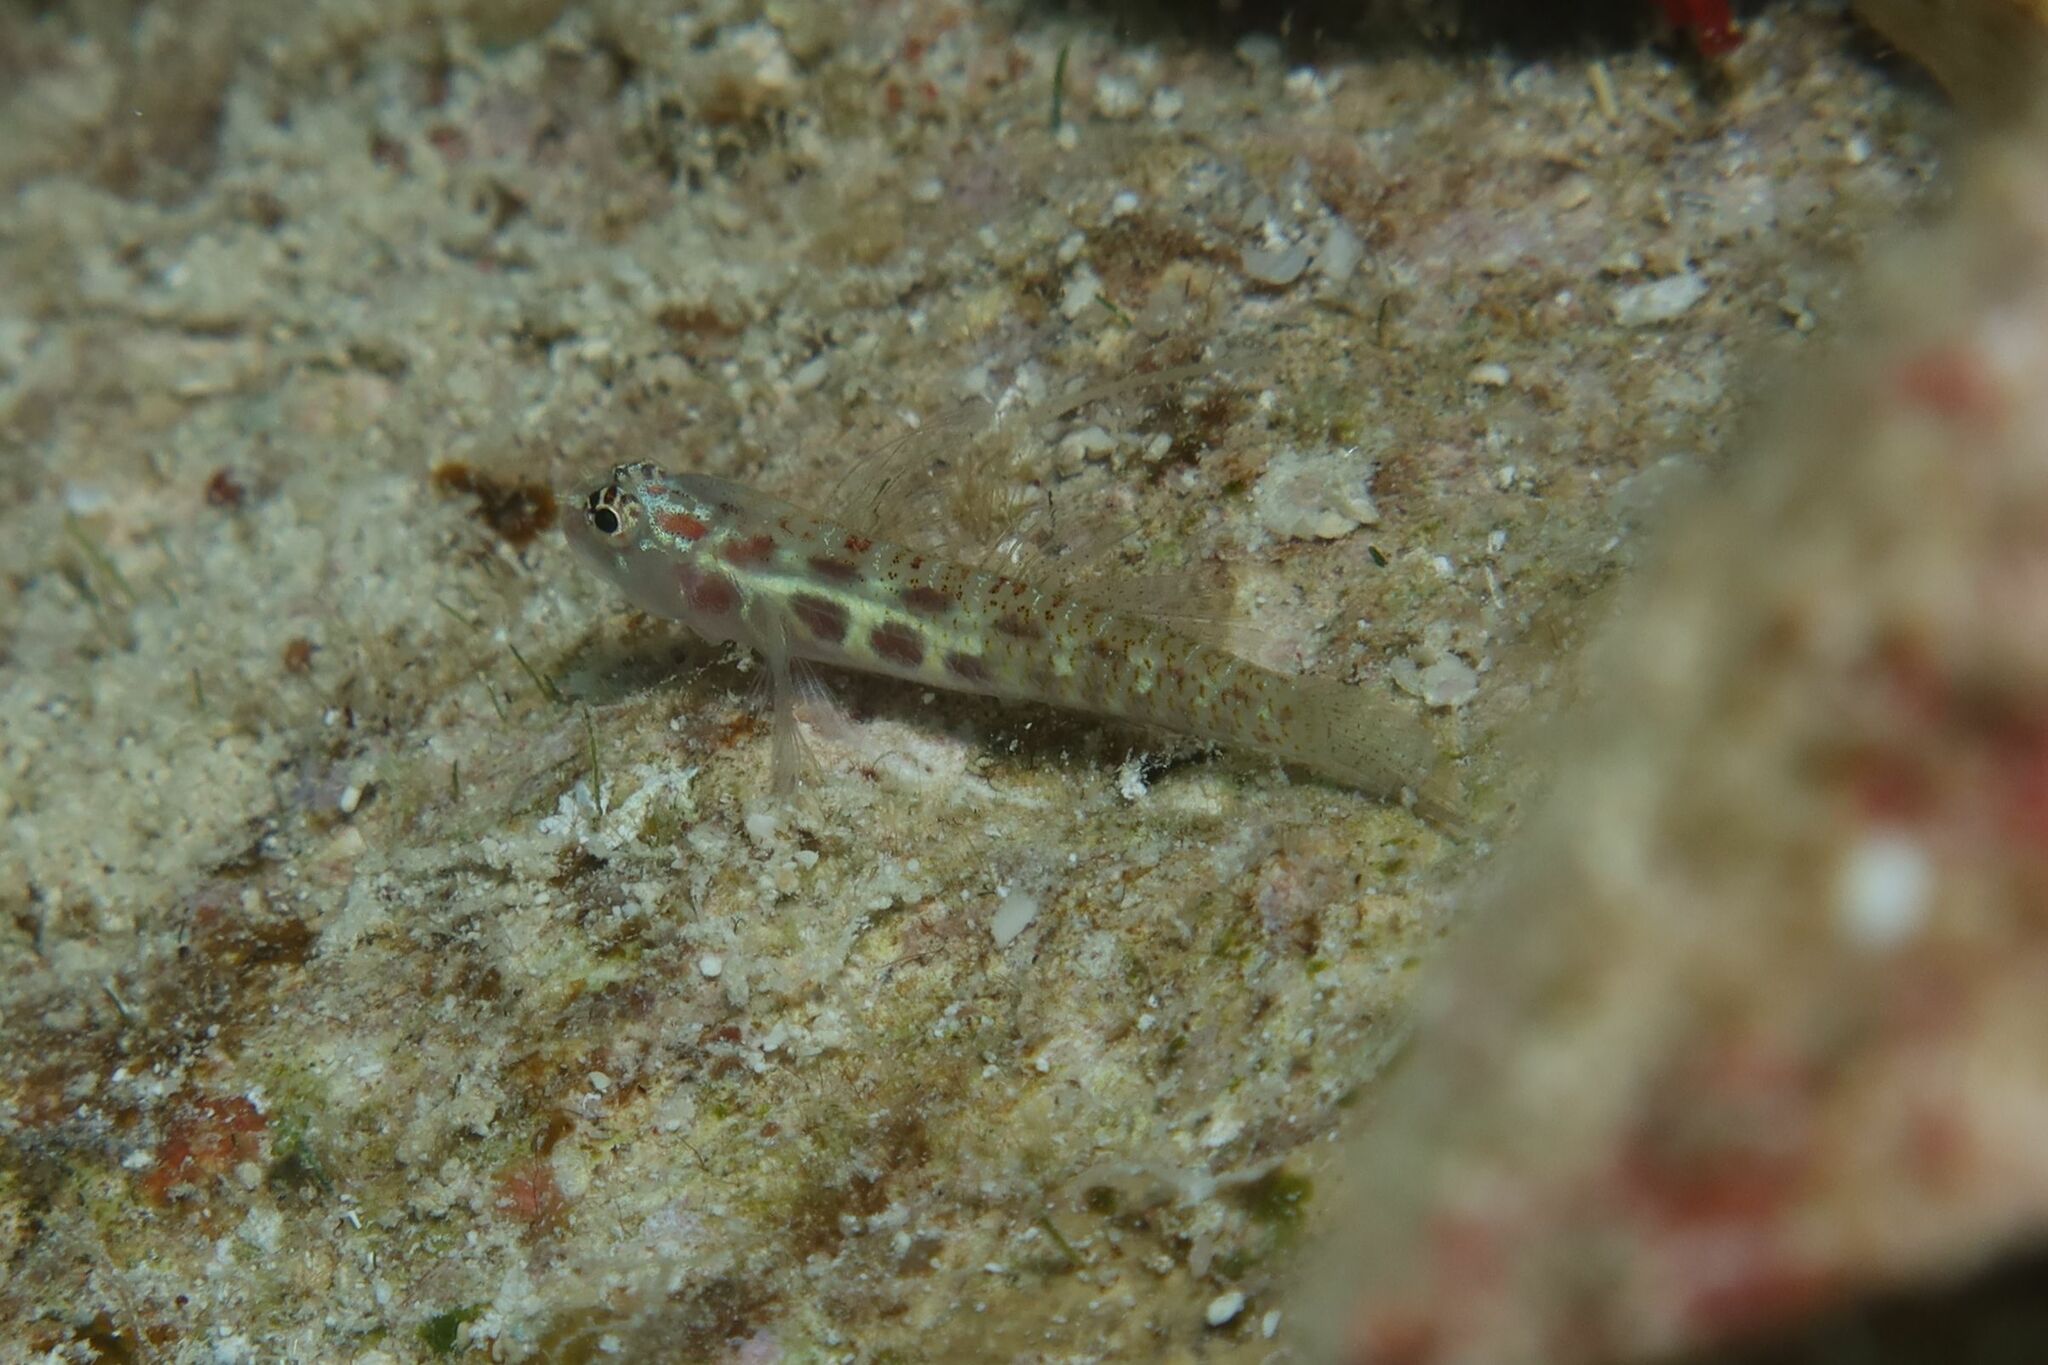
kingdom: Animalia
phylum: Chordata
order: Perciformes
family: Gobiidae
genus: Eviota
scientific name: Eviota guttata
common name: Green pygmy-goby
